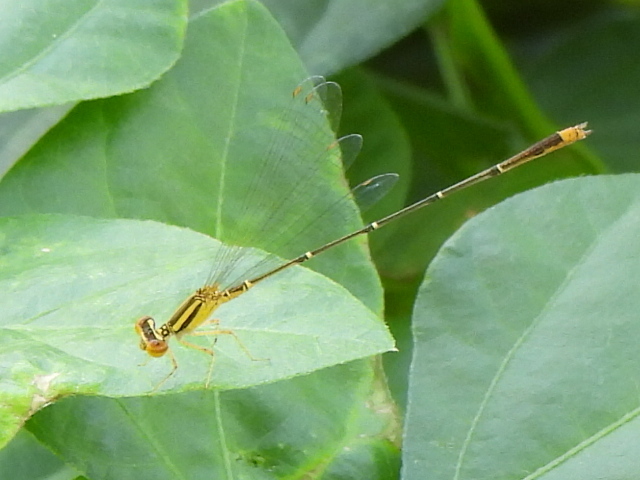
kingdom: Animalia
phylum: Arthropoda
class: Insecta
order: Odonata
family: Coenagrionidae
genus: Enallagma
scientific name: Enallagma signatum
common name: Orange bluet
